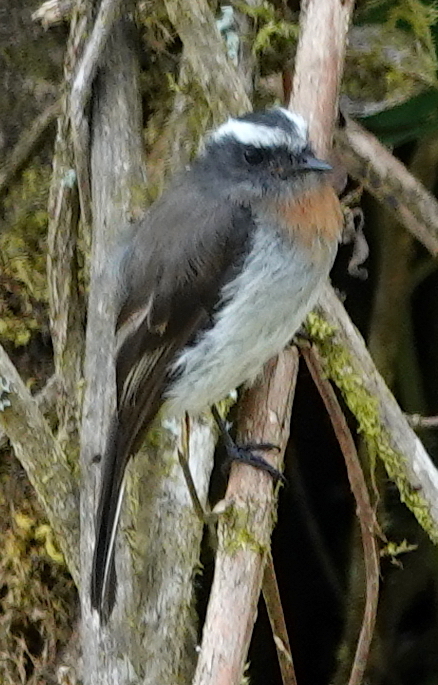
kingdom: Animalia
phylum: Chordata
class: Aves
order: Passeriformes
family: Tyrannidae
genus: Ochthoeca
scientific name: Ochthoeca rufipectoralis
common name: Rufous-breasted chat-tyrant
